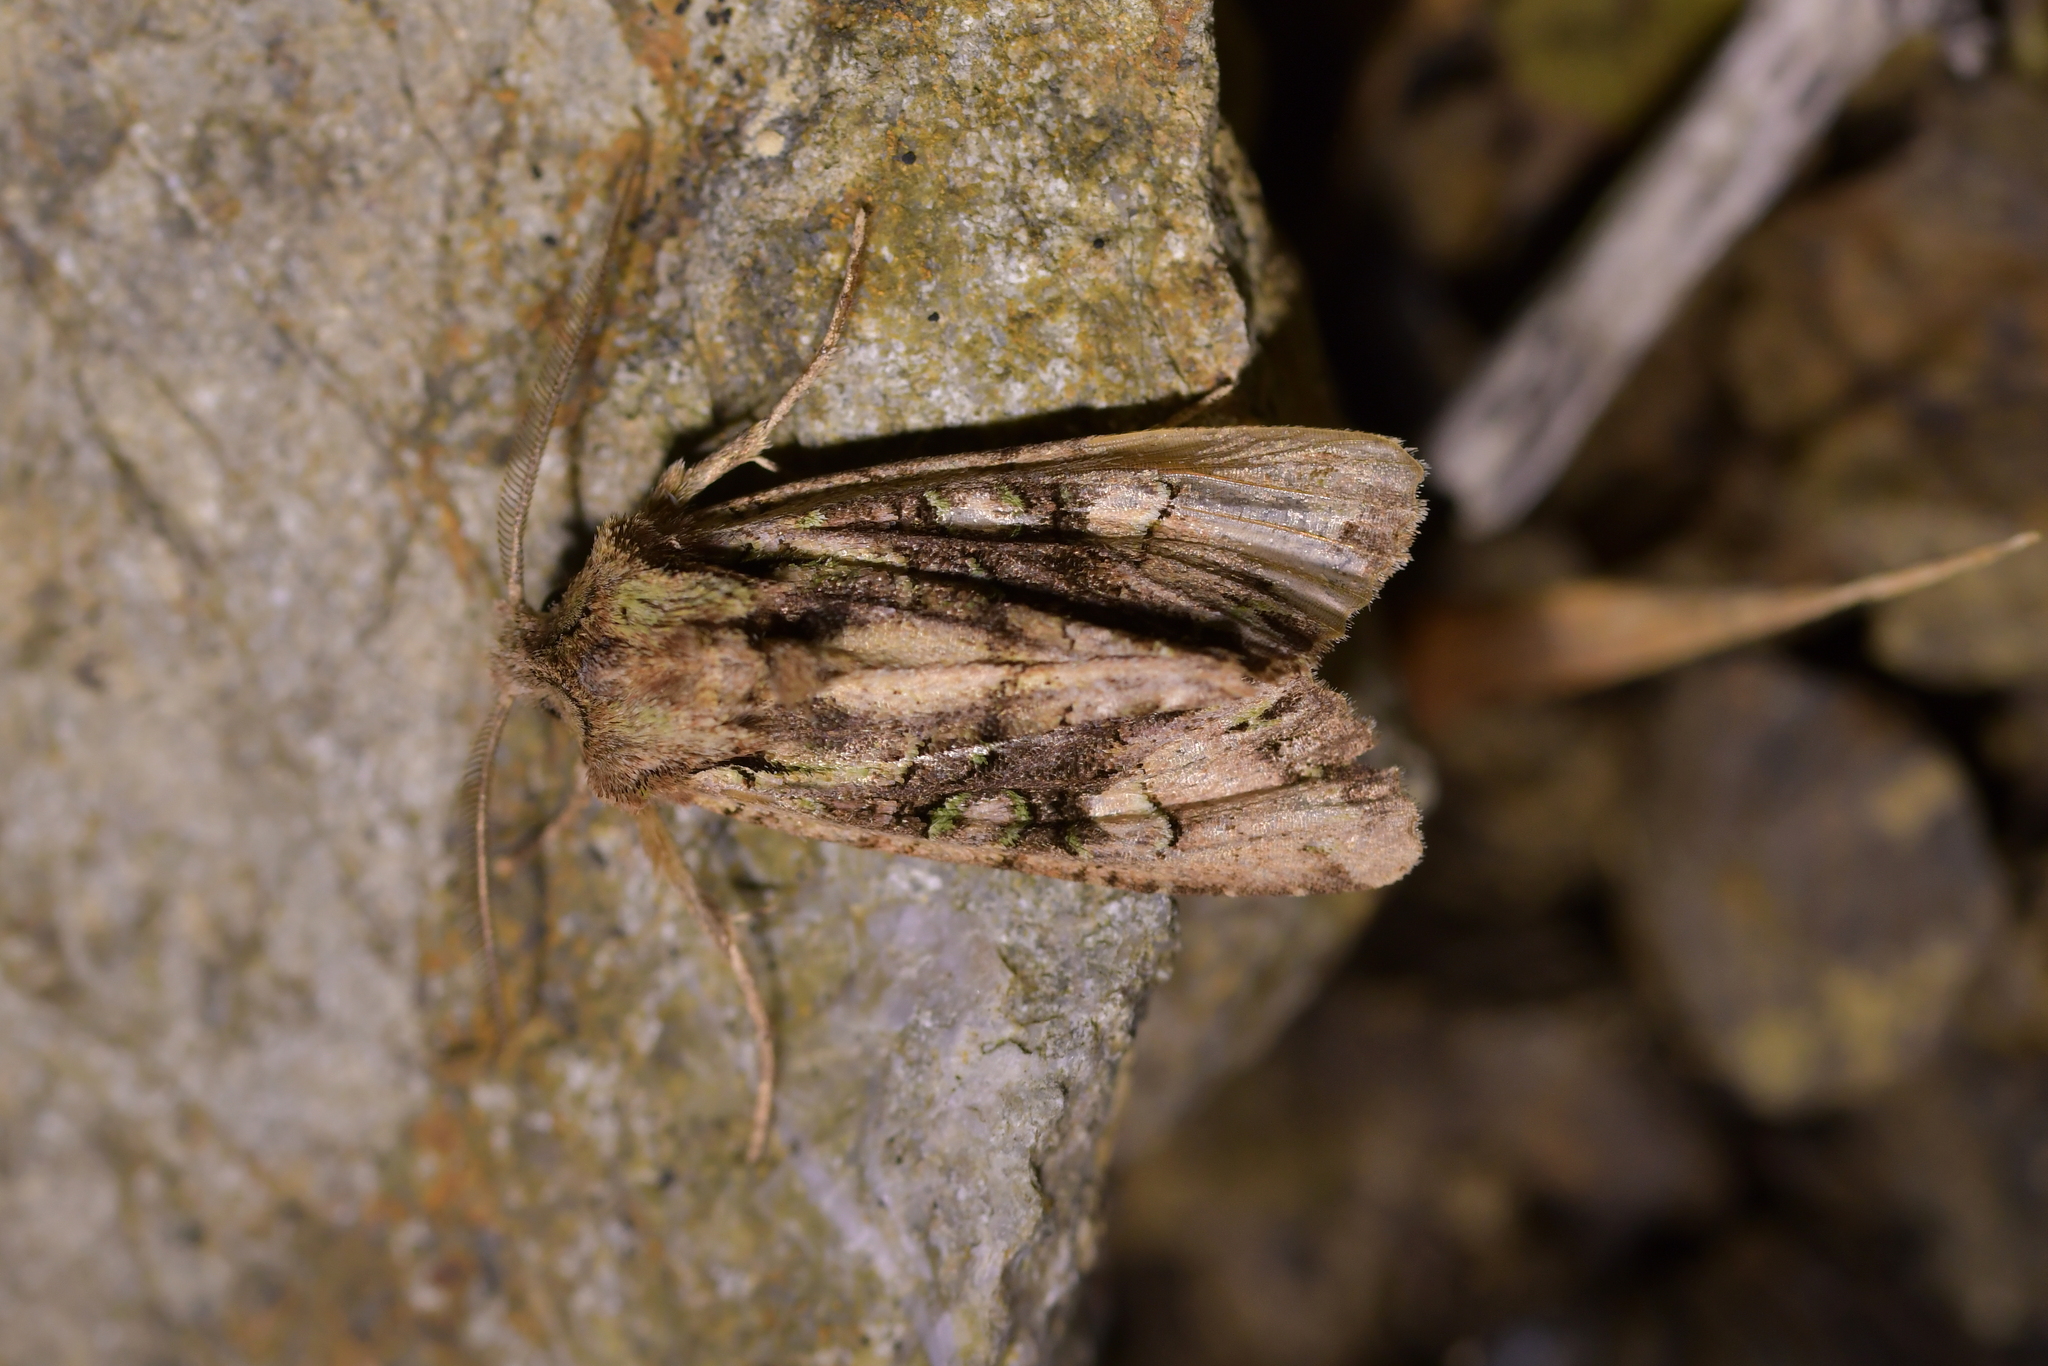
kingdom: Animalia
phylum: Arthropoda
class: Insecta
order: Lepidoptera
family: Noctuidae
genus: Ichneutica
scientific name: Ichneutica insignis
